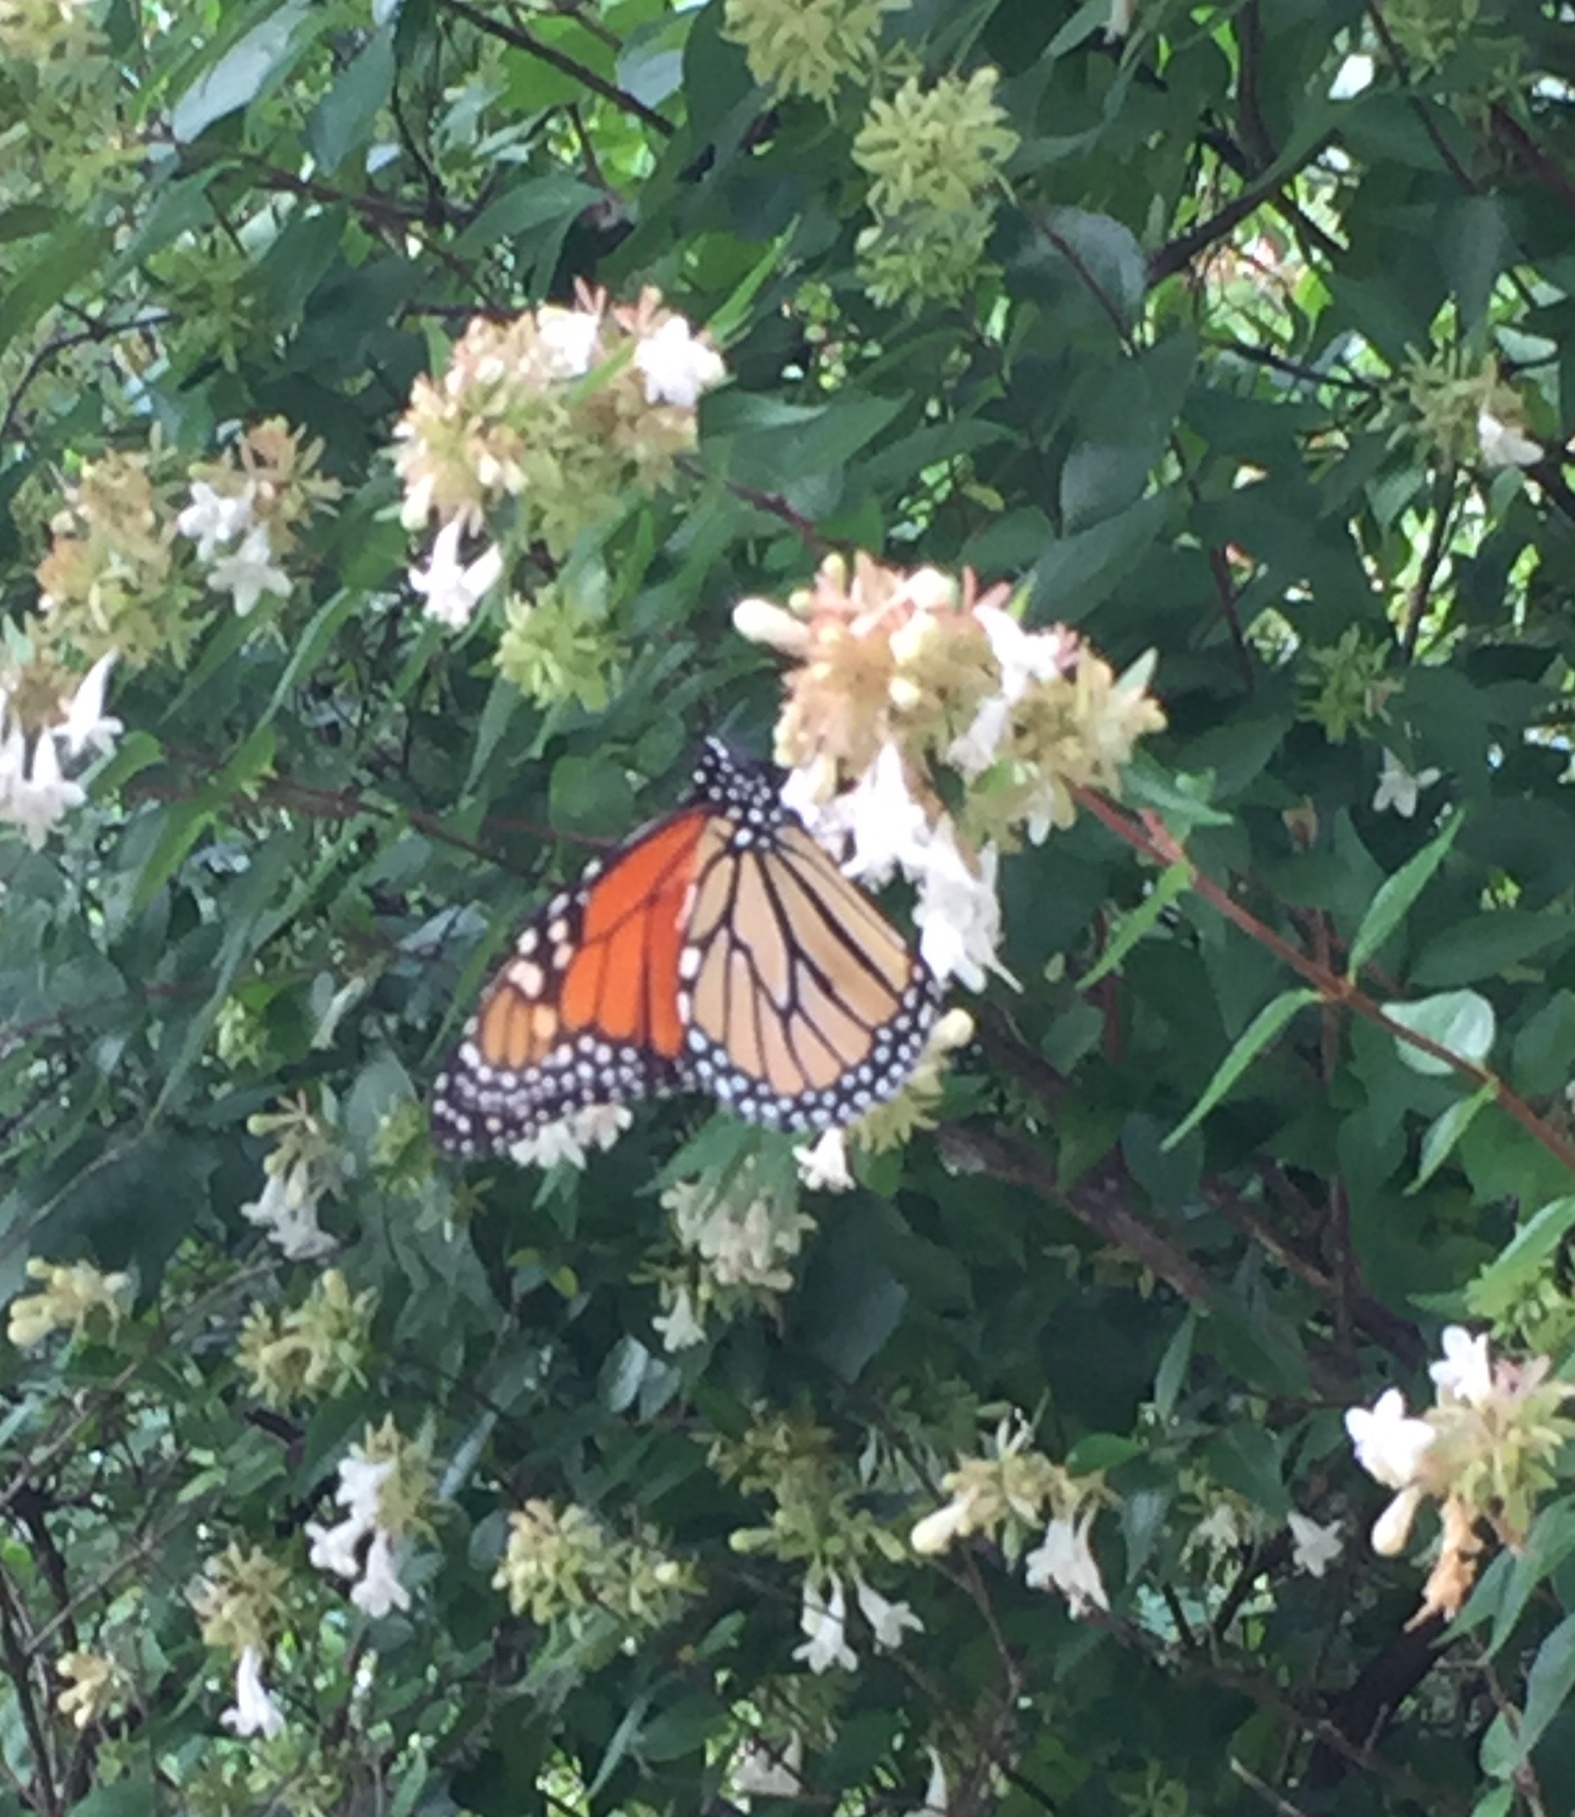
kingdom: Animalia
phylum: Arthropoda
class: Insecta
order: Lepidoptera
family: Nymphalidae
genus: Danaus
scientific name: Danaus plexippus
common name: Monarch
